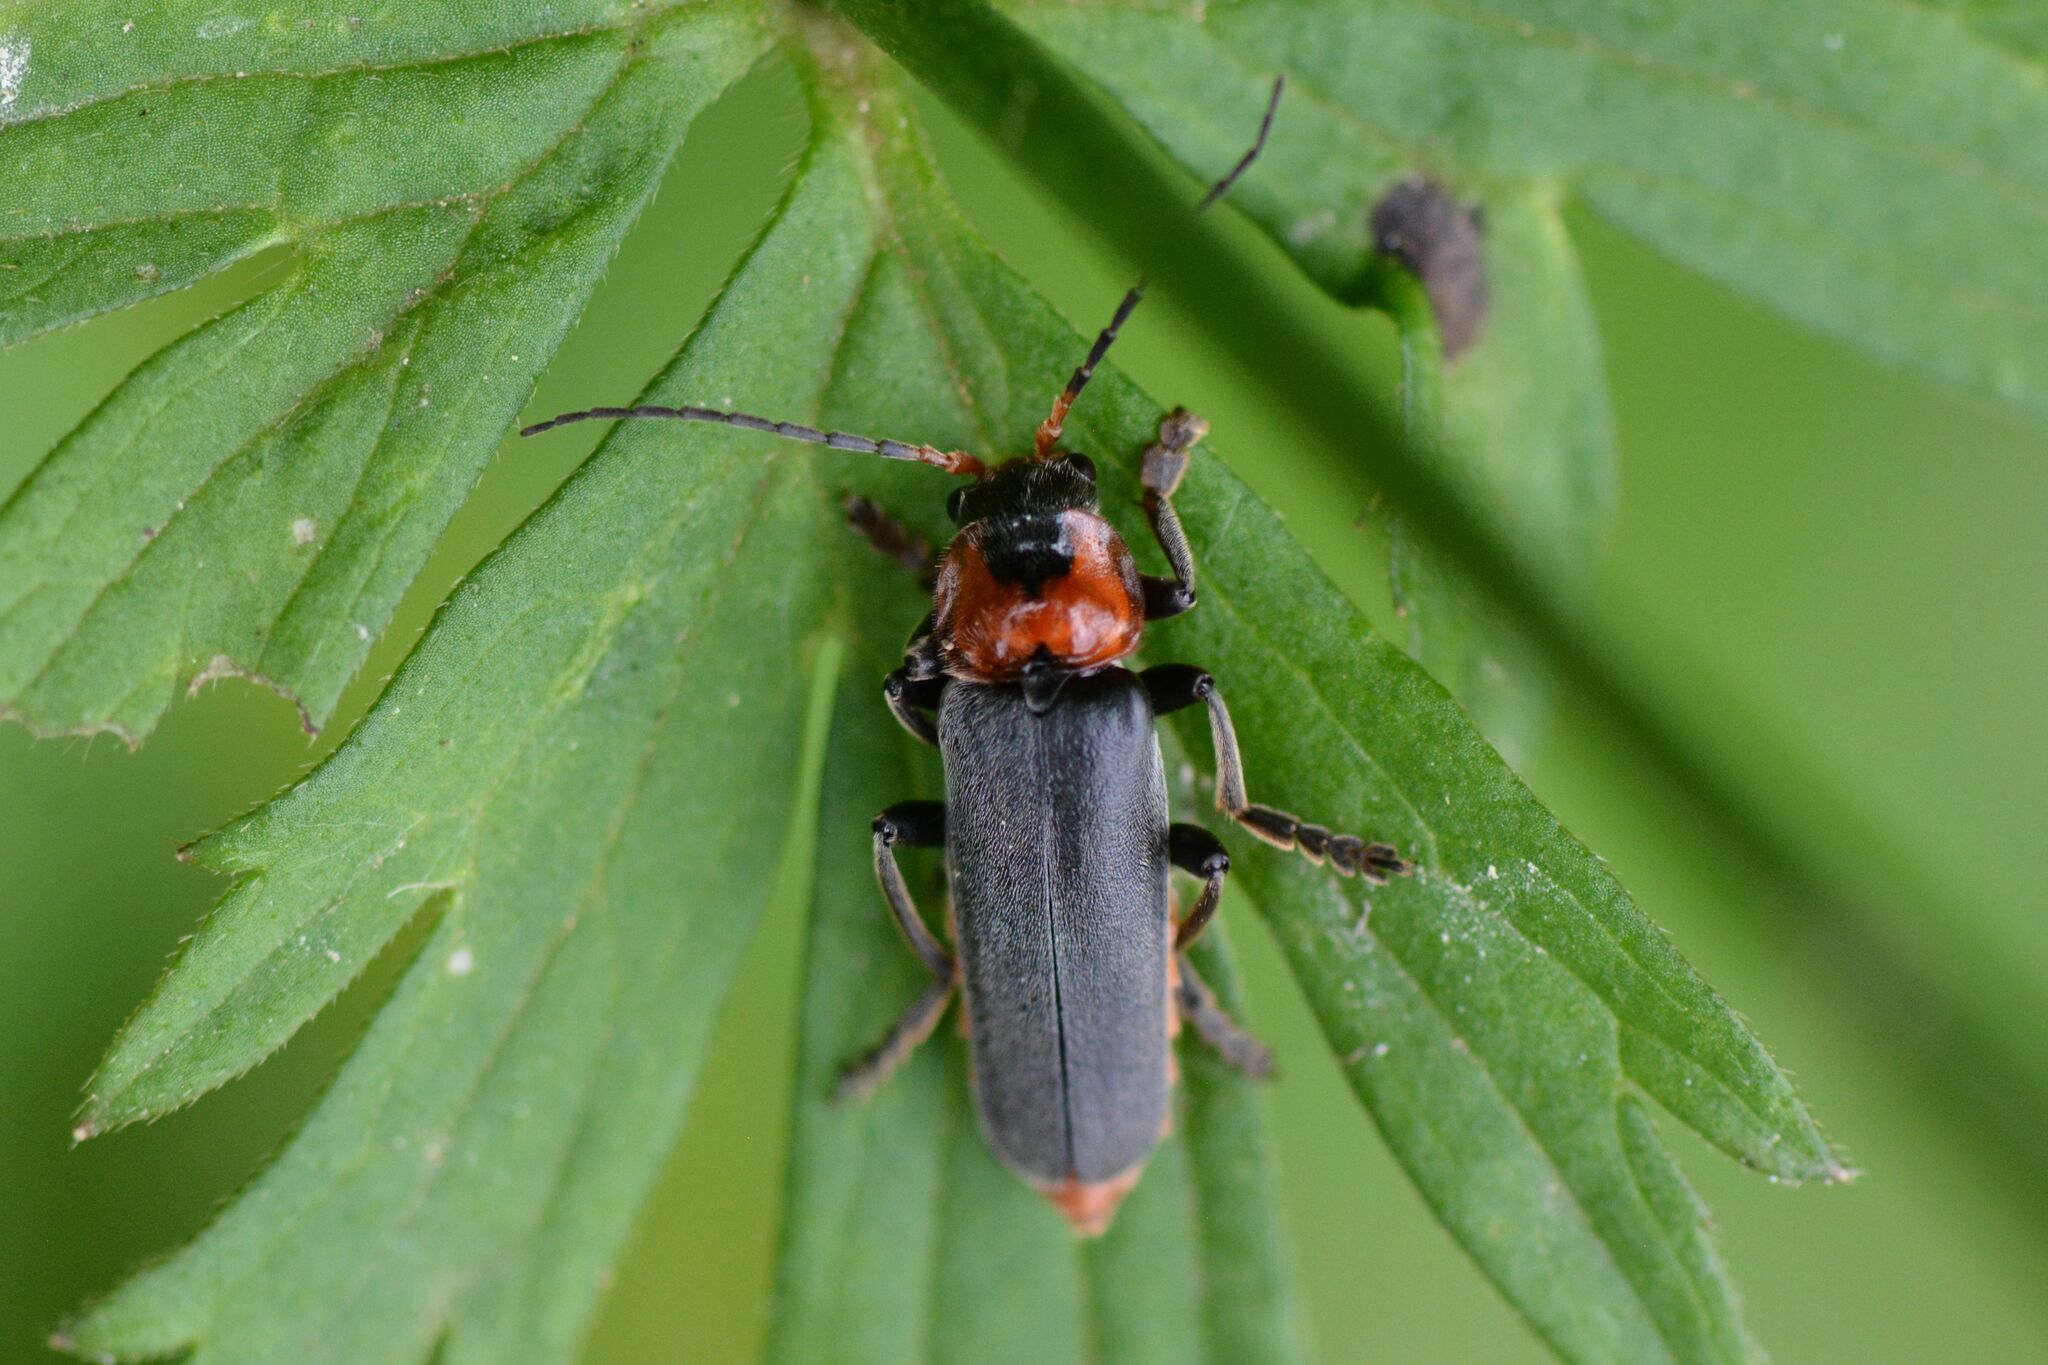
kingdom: Animalia
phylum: Arthropoda
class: Insecta
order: Coleoptera
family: Cantharidae
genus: Cantharis
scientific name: Cantharis fusca
